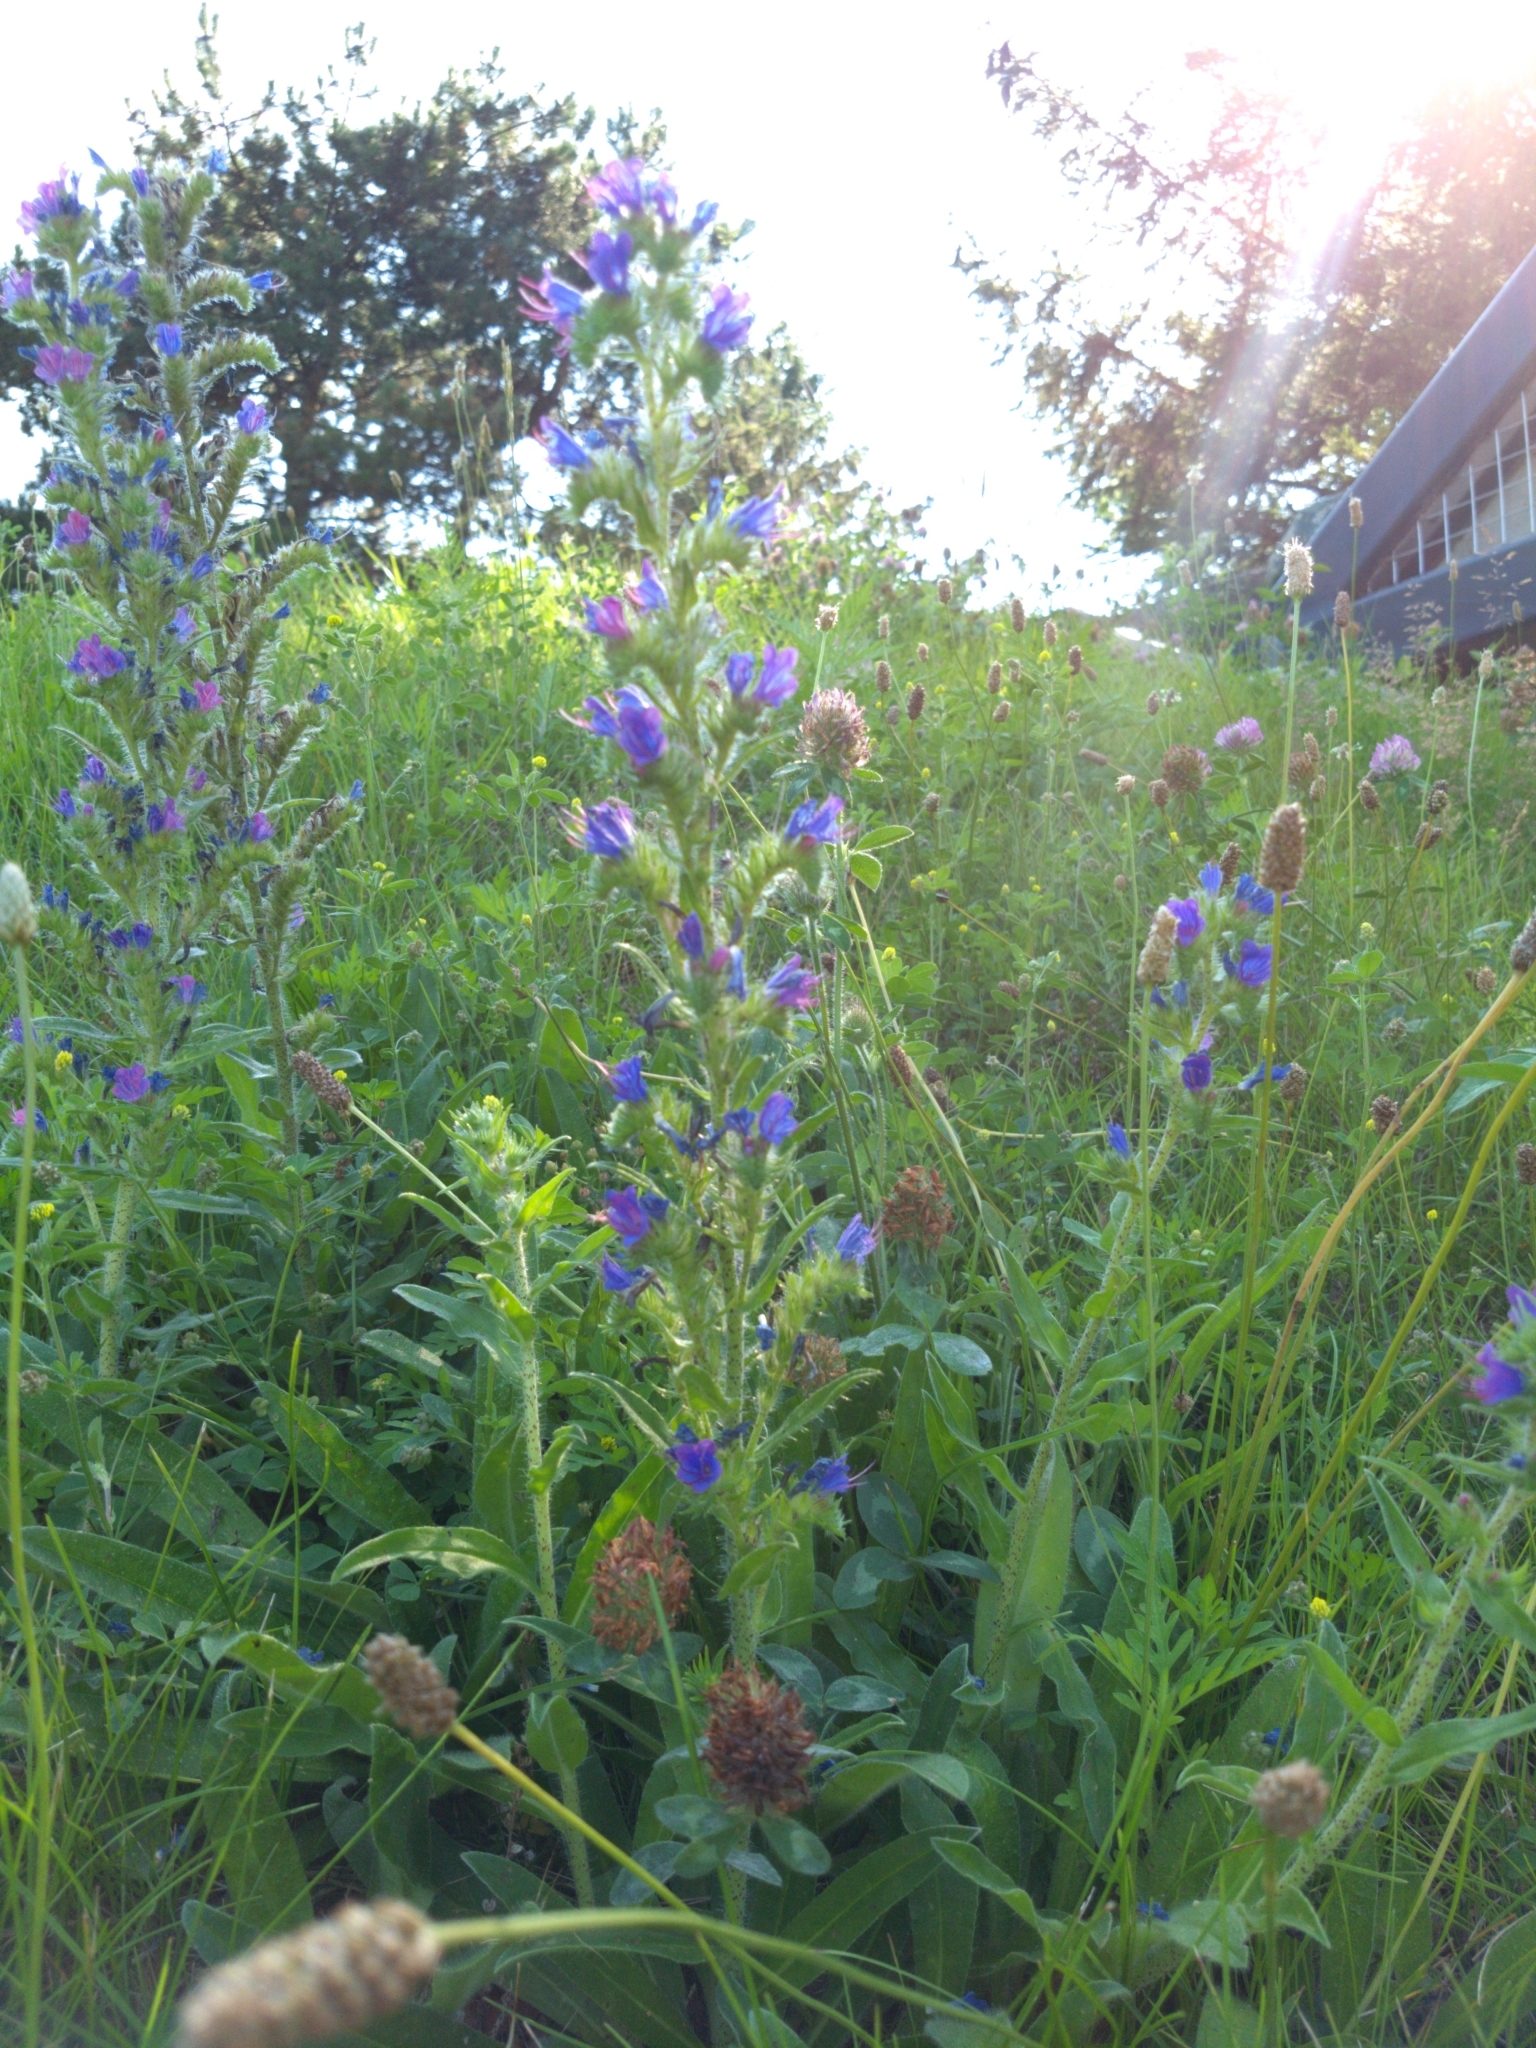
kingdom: Plantae
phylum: Tracheophyta
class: Magnoliopsida
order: Boraginales
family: Boraginaceae
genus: Echium
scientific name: Echium vulgare
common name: Common viper's bugloss
